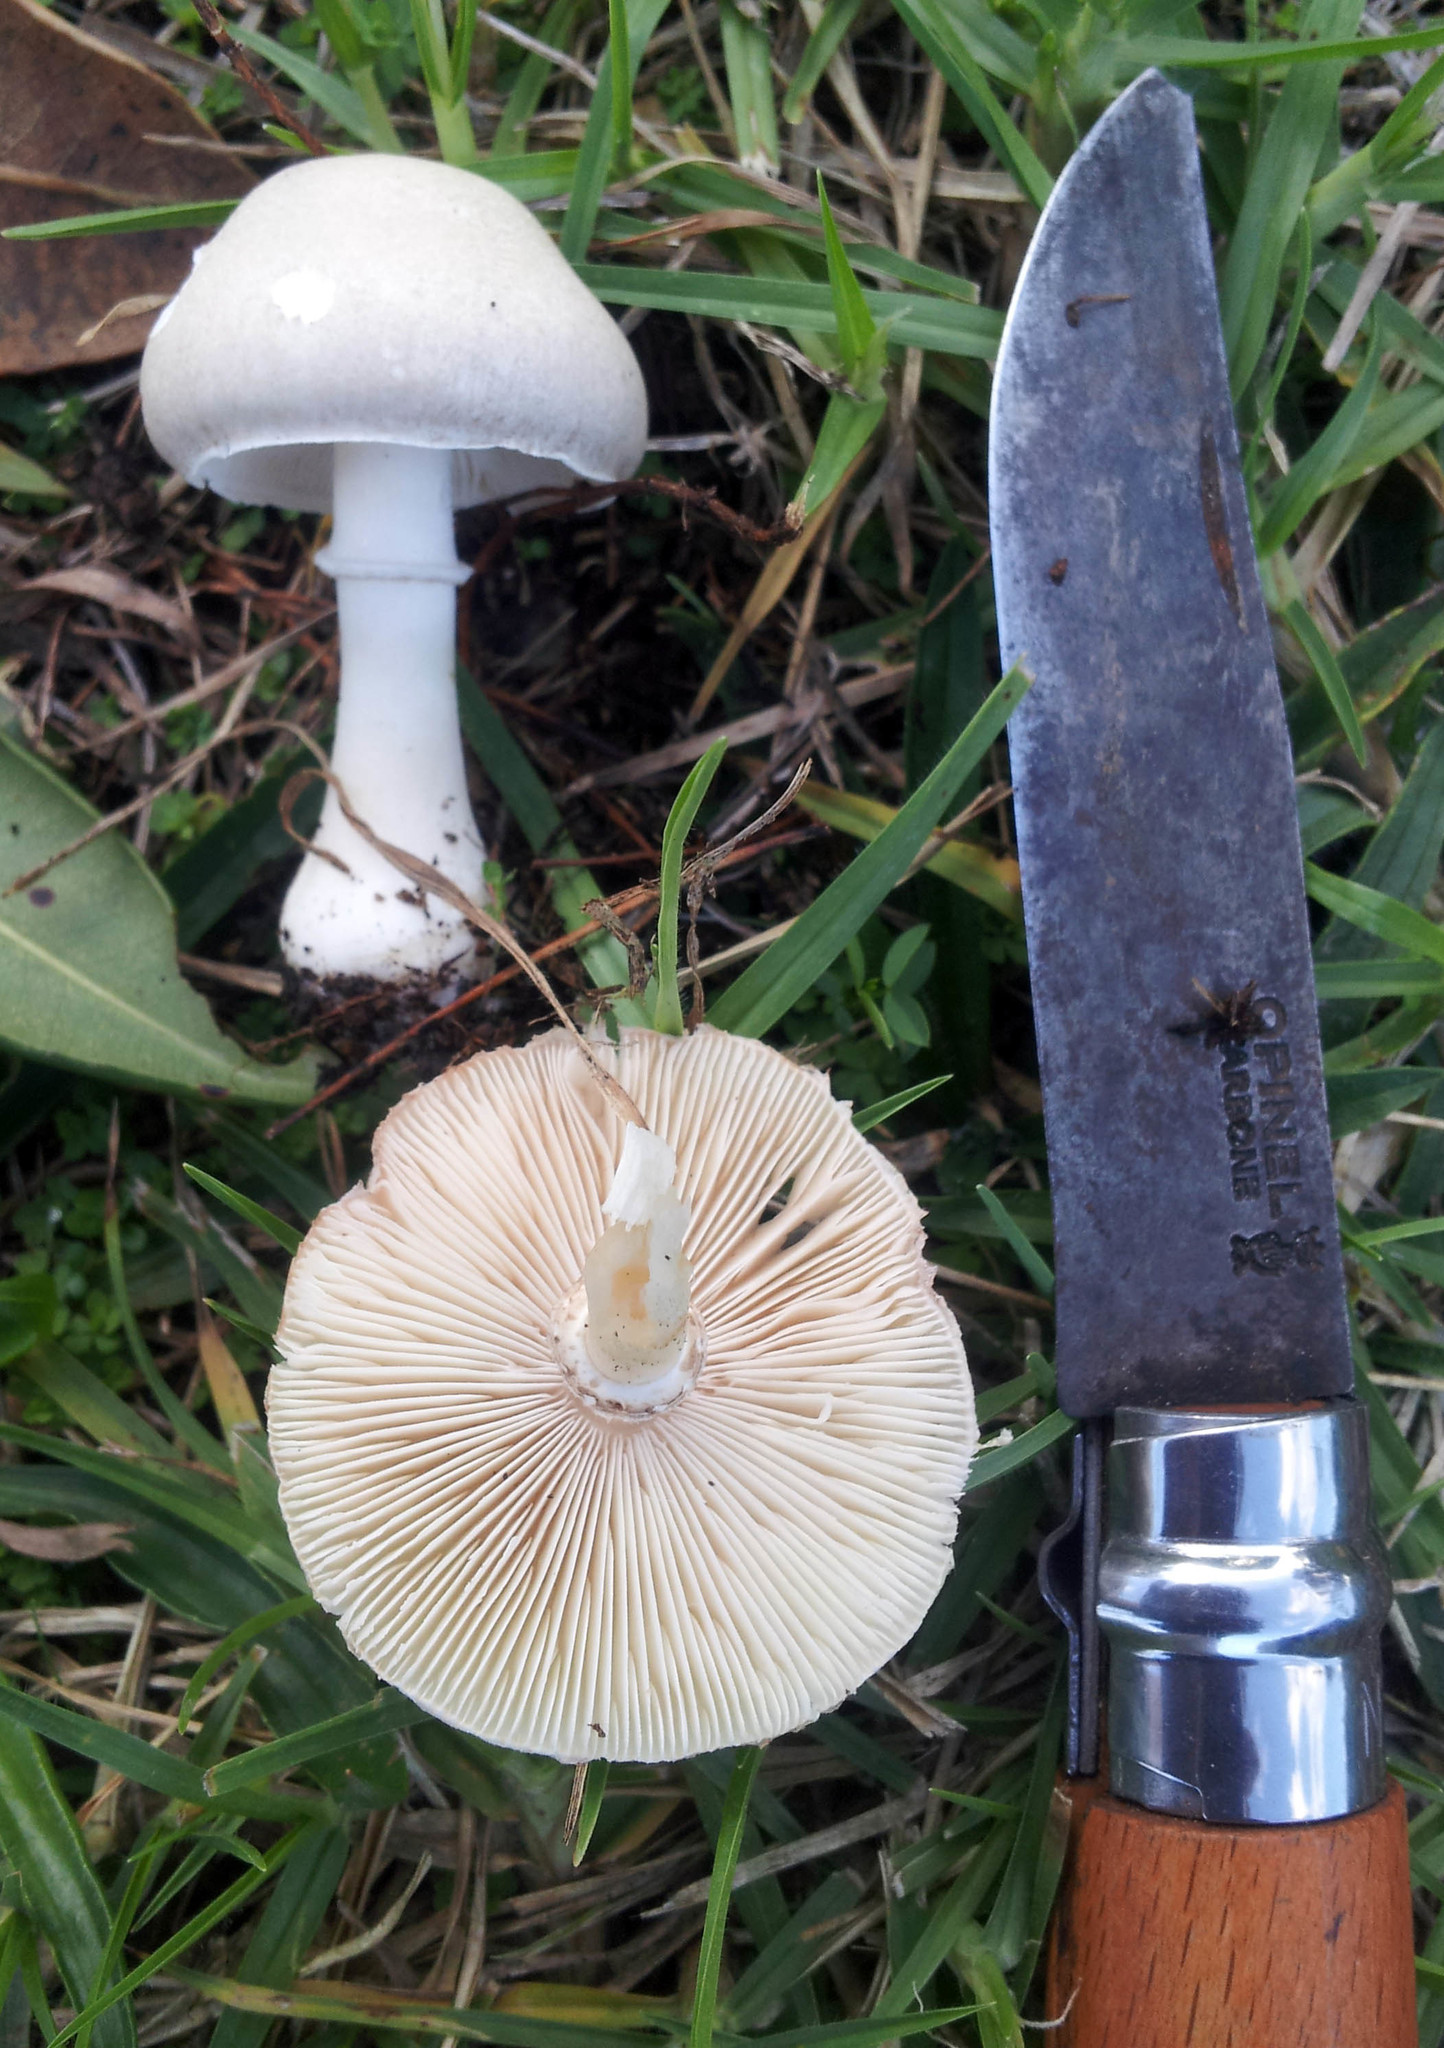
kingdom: Fungi
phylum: Basidiomycota
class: Agaricomycetes
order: Agaricales
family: Agaricaceae
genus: Leucoagaricus
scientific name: Leucoagaricus leucothites
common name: White dapperling
